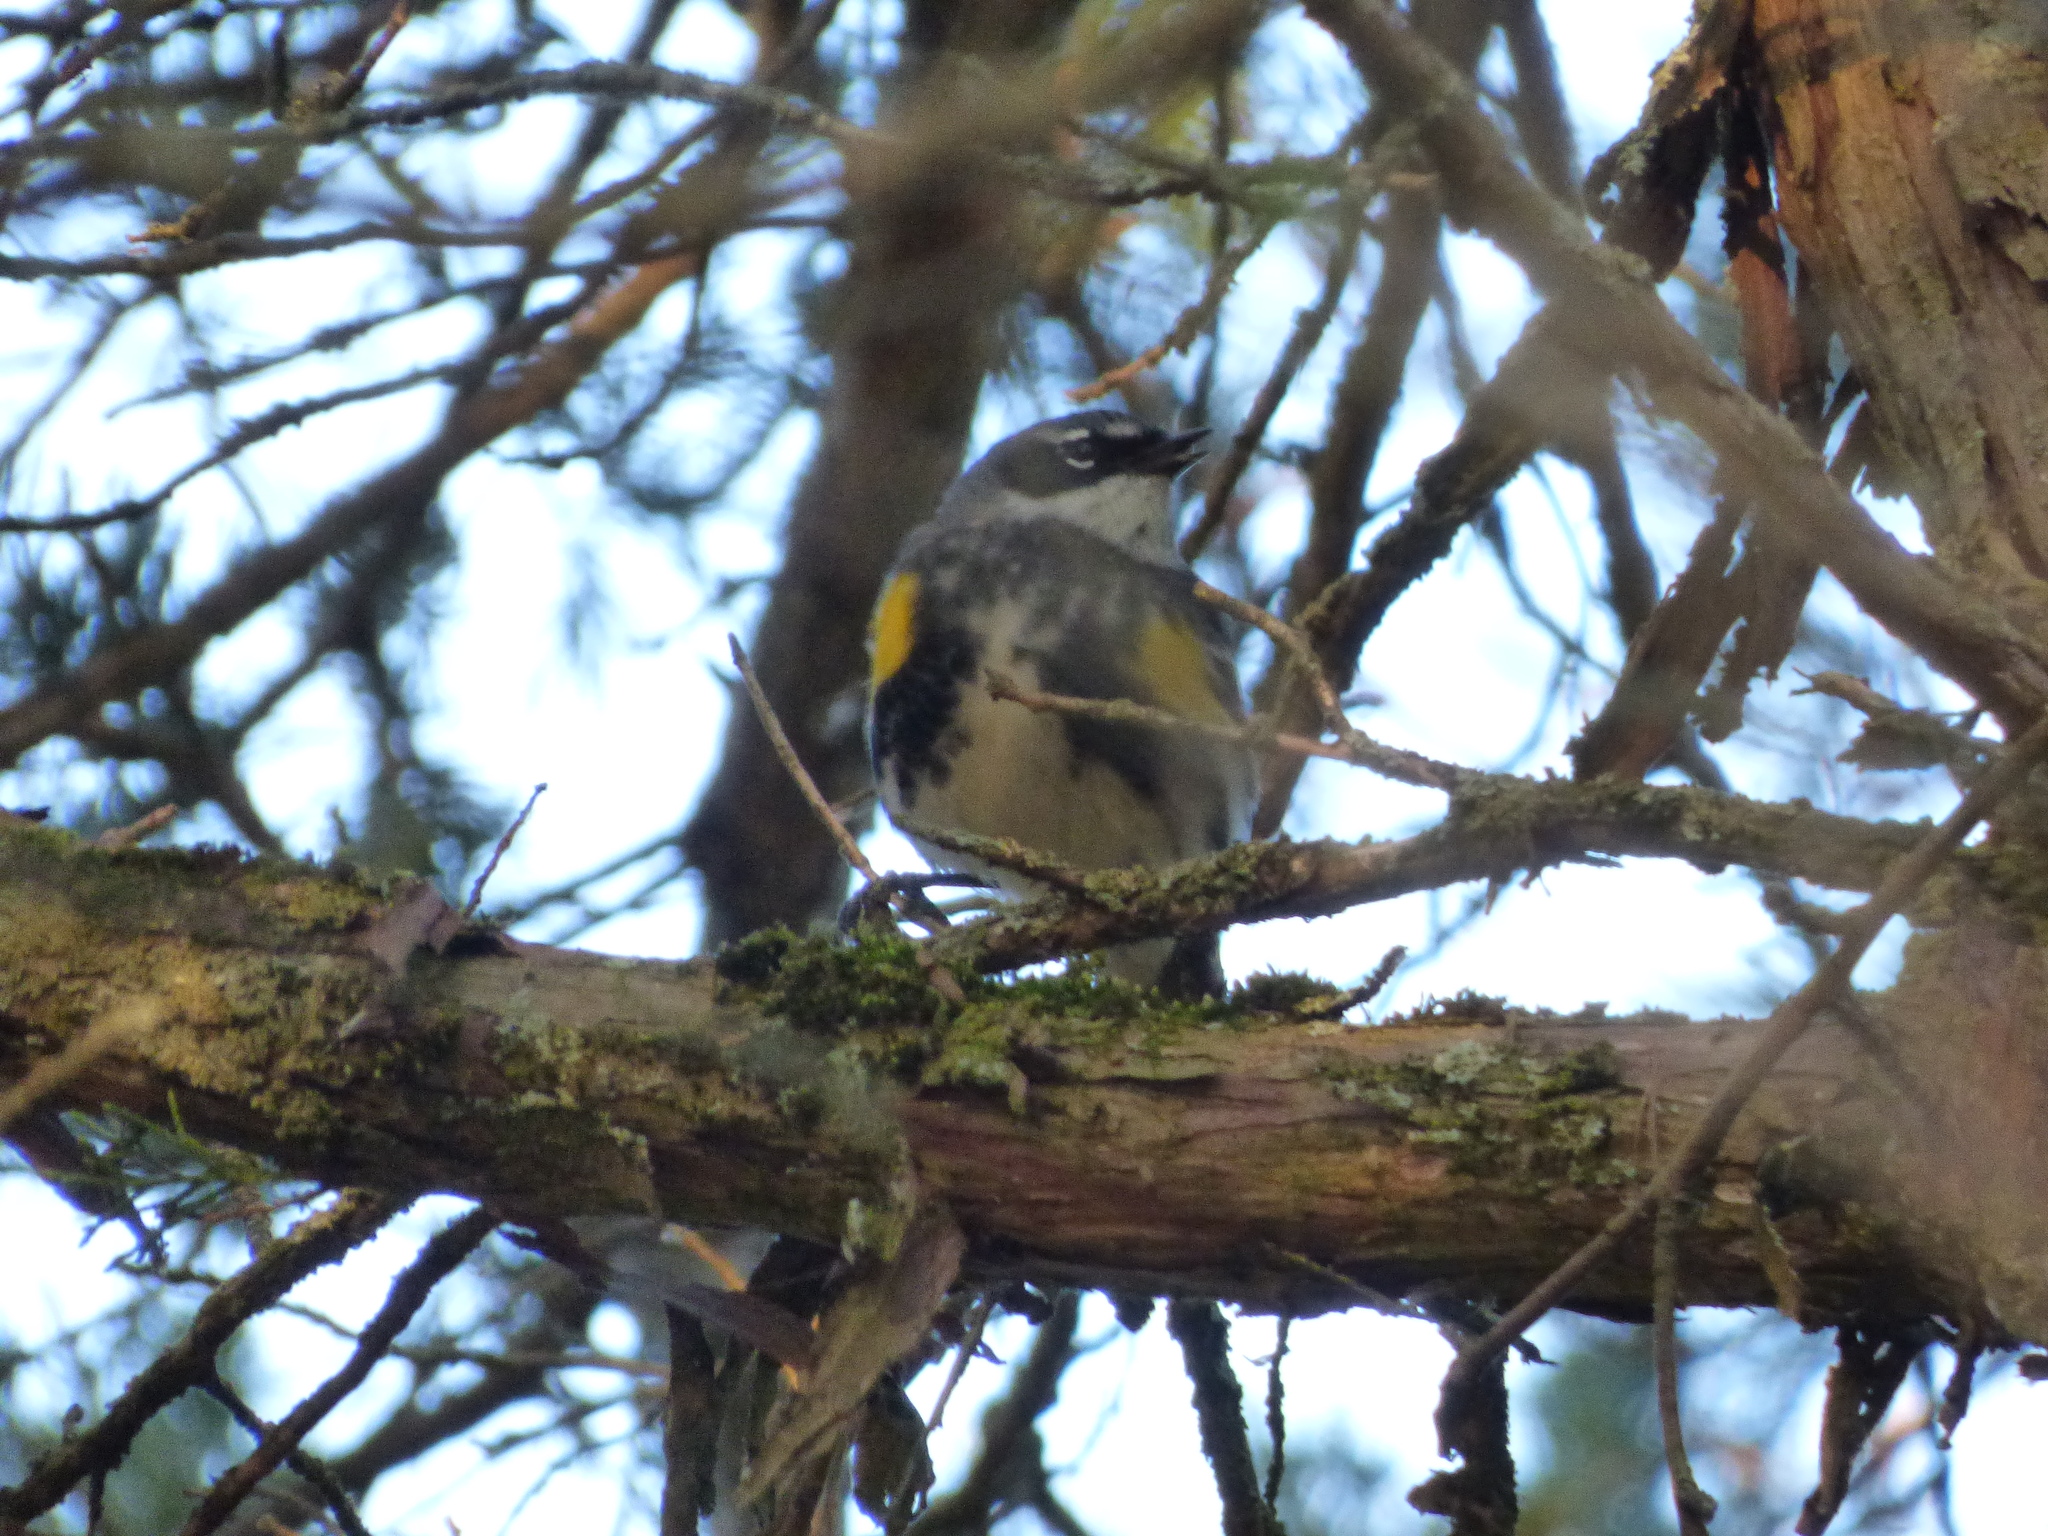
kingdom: Animalia
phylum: Chordata
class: Aves
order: Passeriformes
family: Parulidae
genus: Setophaga
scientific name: Setophaga coronata
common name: Myrtle warbler
